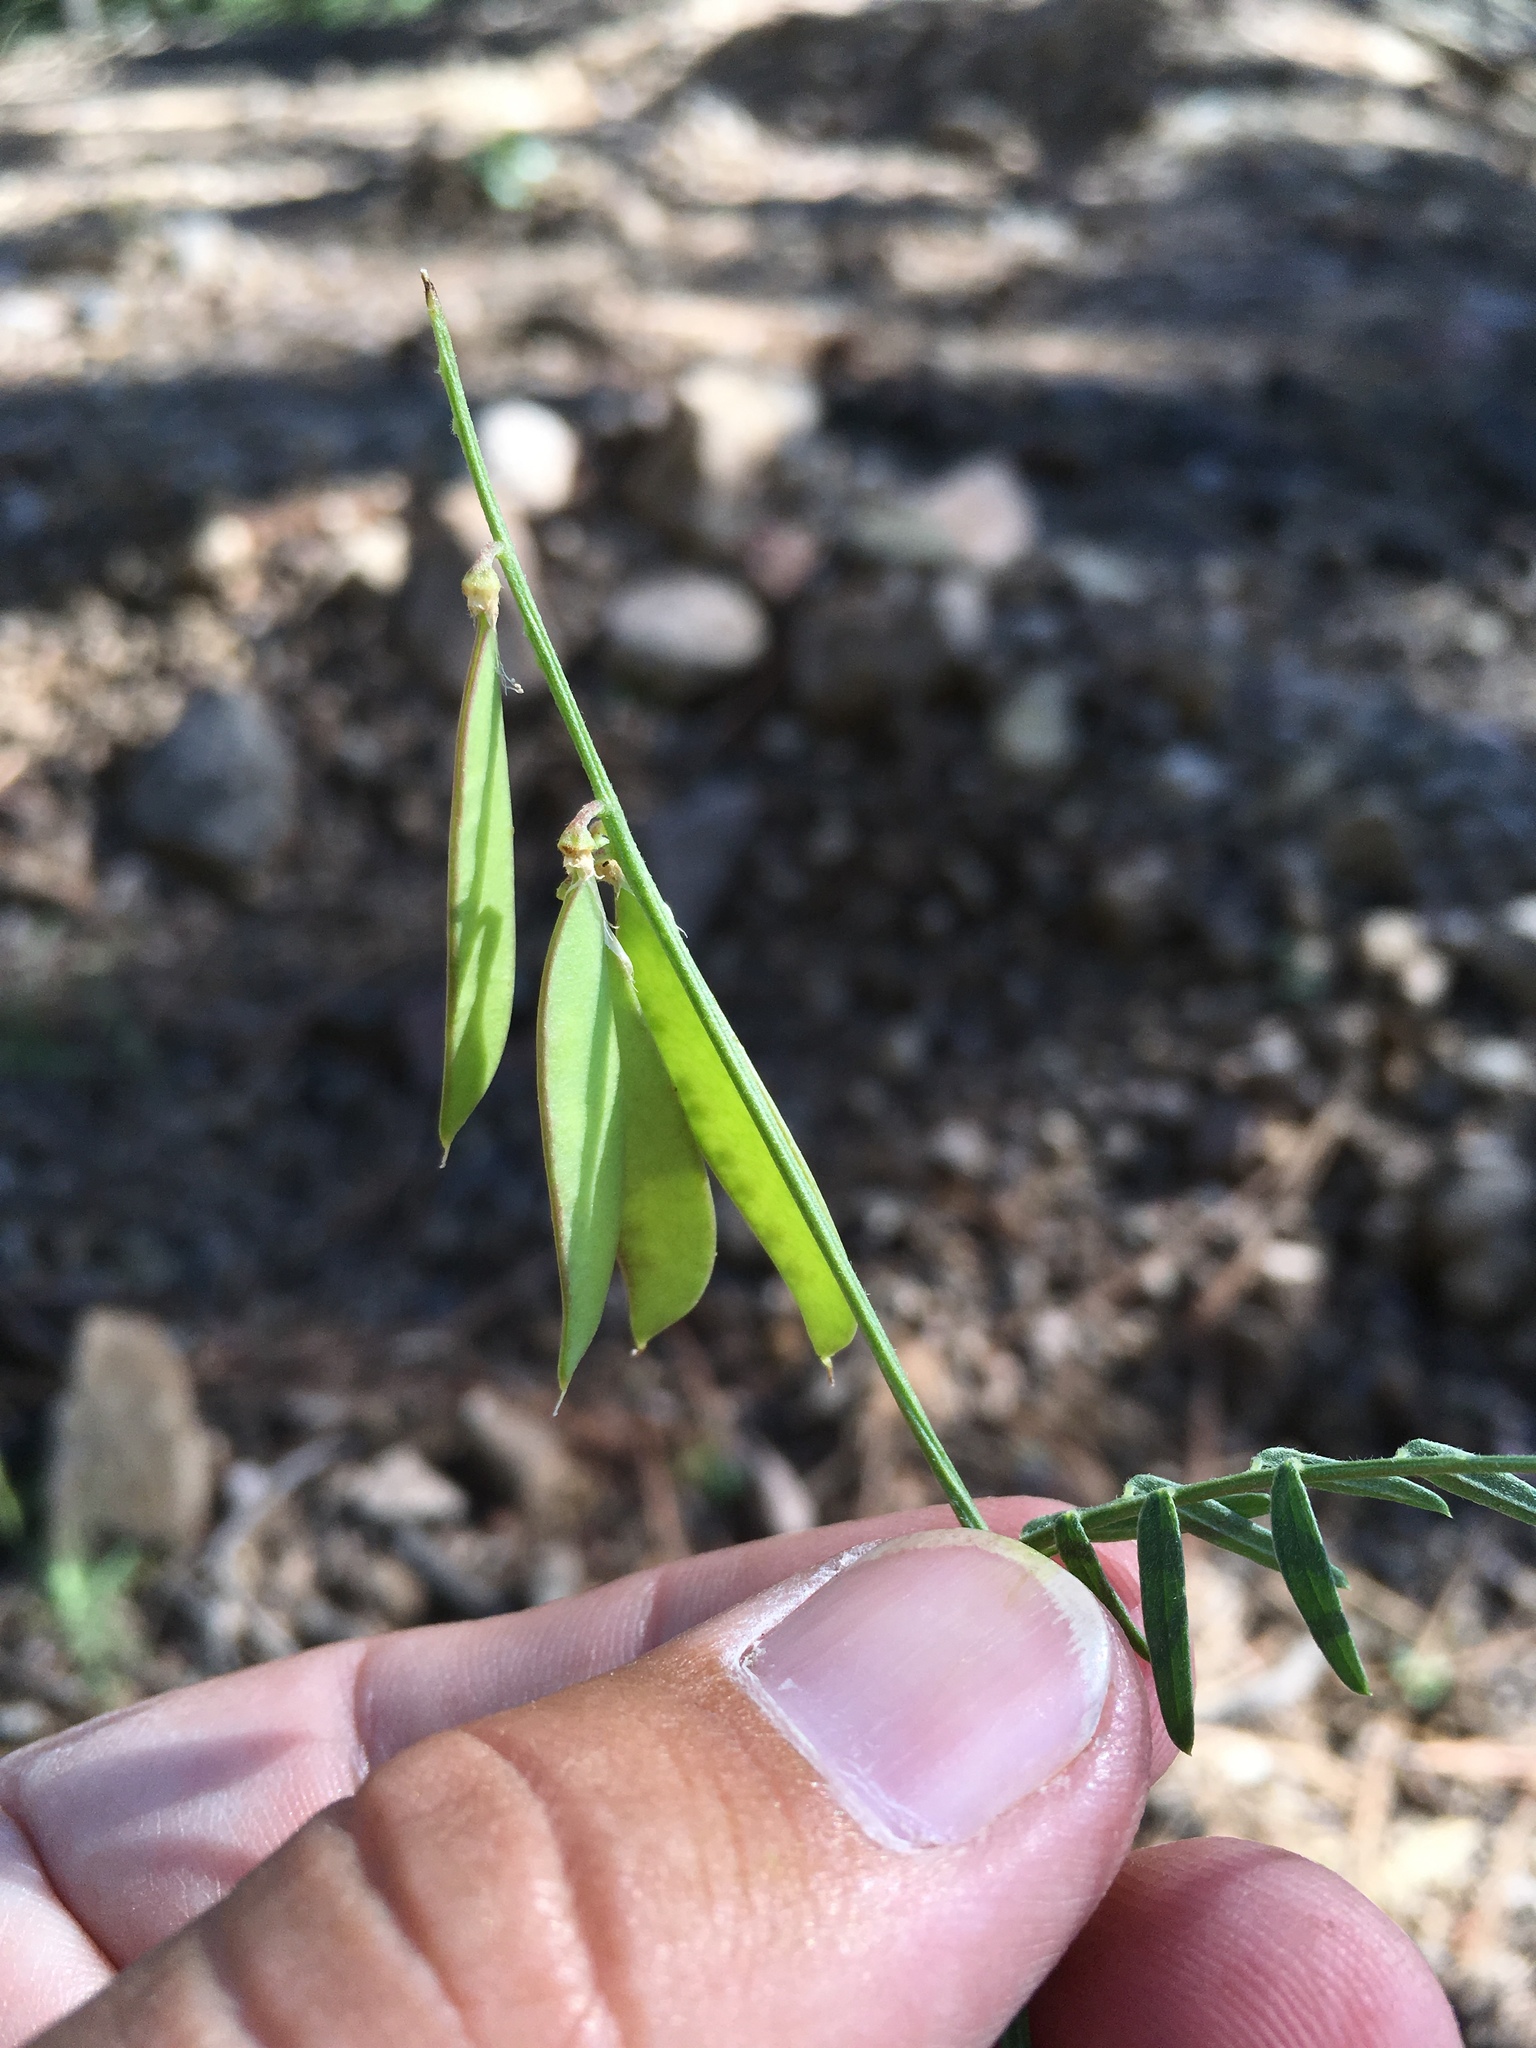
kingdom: Plantae
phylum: Tracheophyta
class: Magnoliopsida
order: Fabales
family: Fabaceae
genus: Vicia
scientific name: Vicia pulchella
